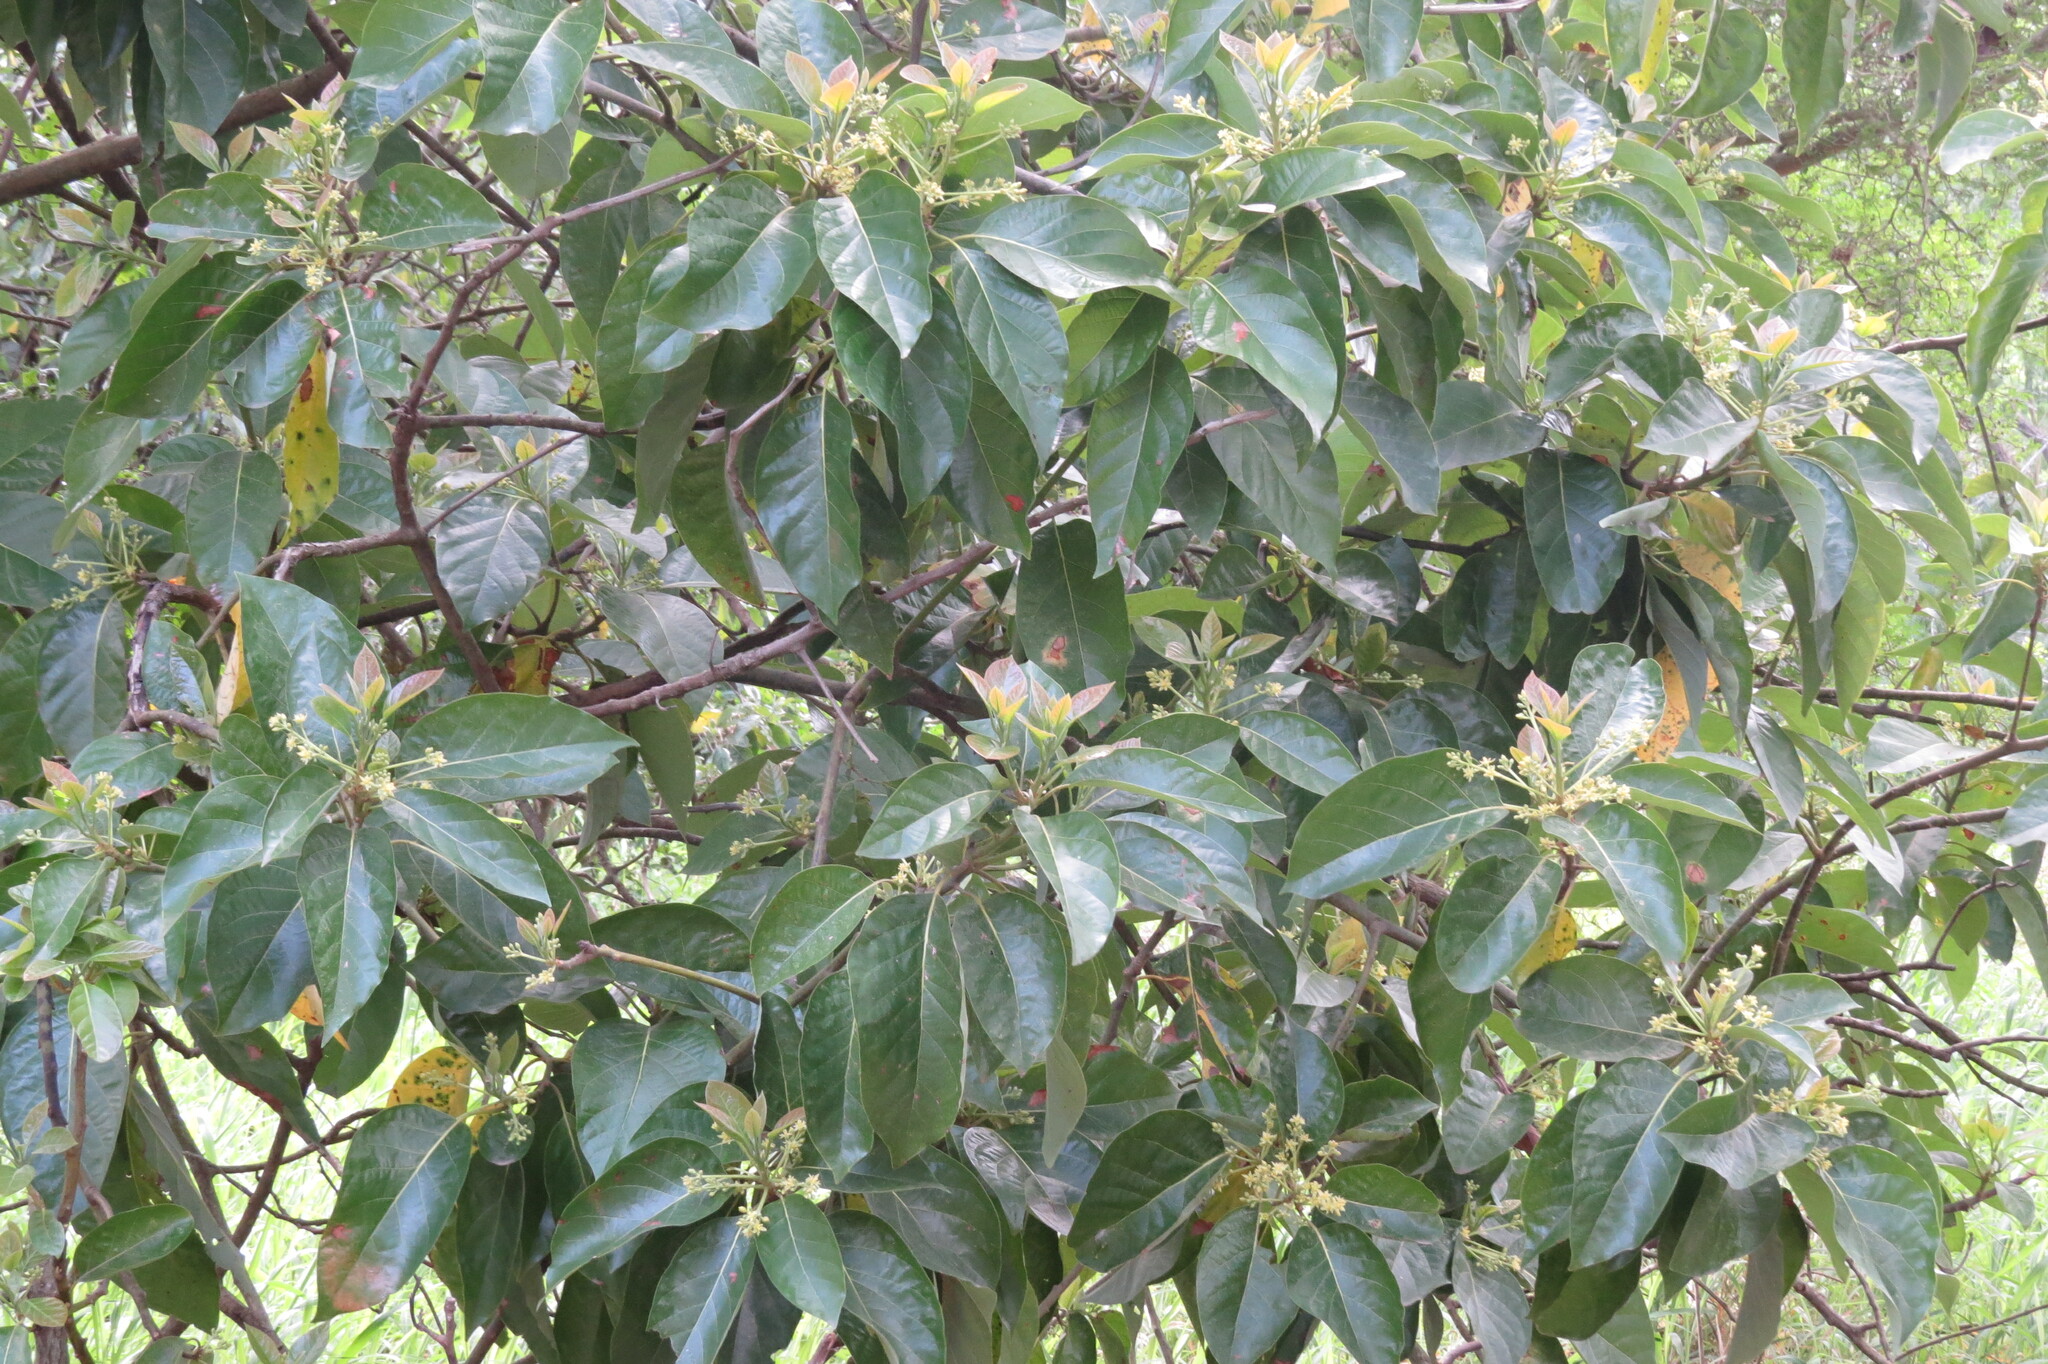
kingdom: Plantae
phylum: Tracheophyta
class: Magnoliopsida
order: Laurales
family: Lauraceae
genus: Persea
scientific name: Persea americana
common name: Avocado
